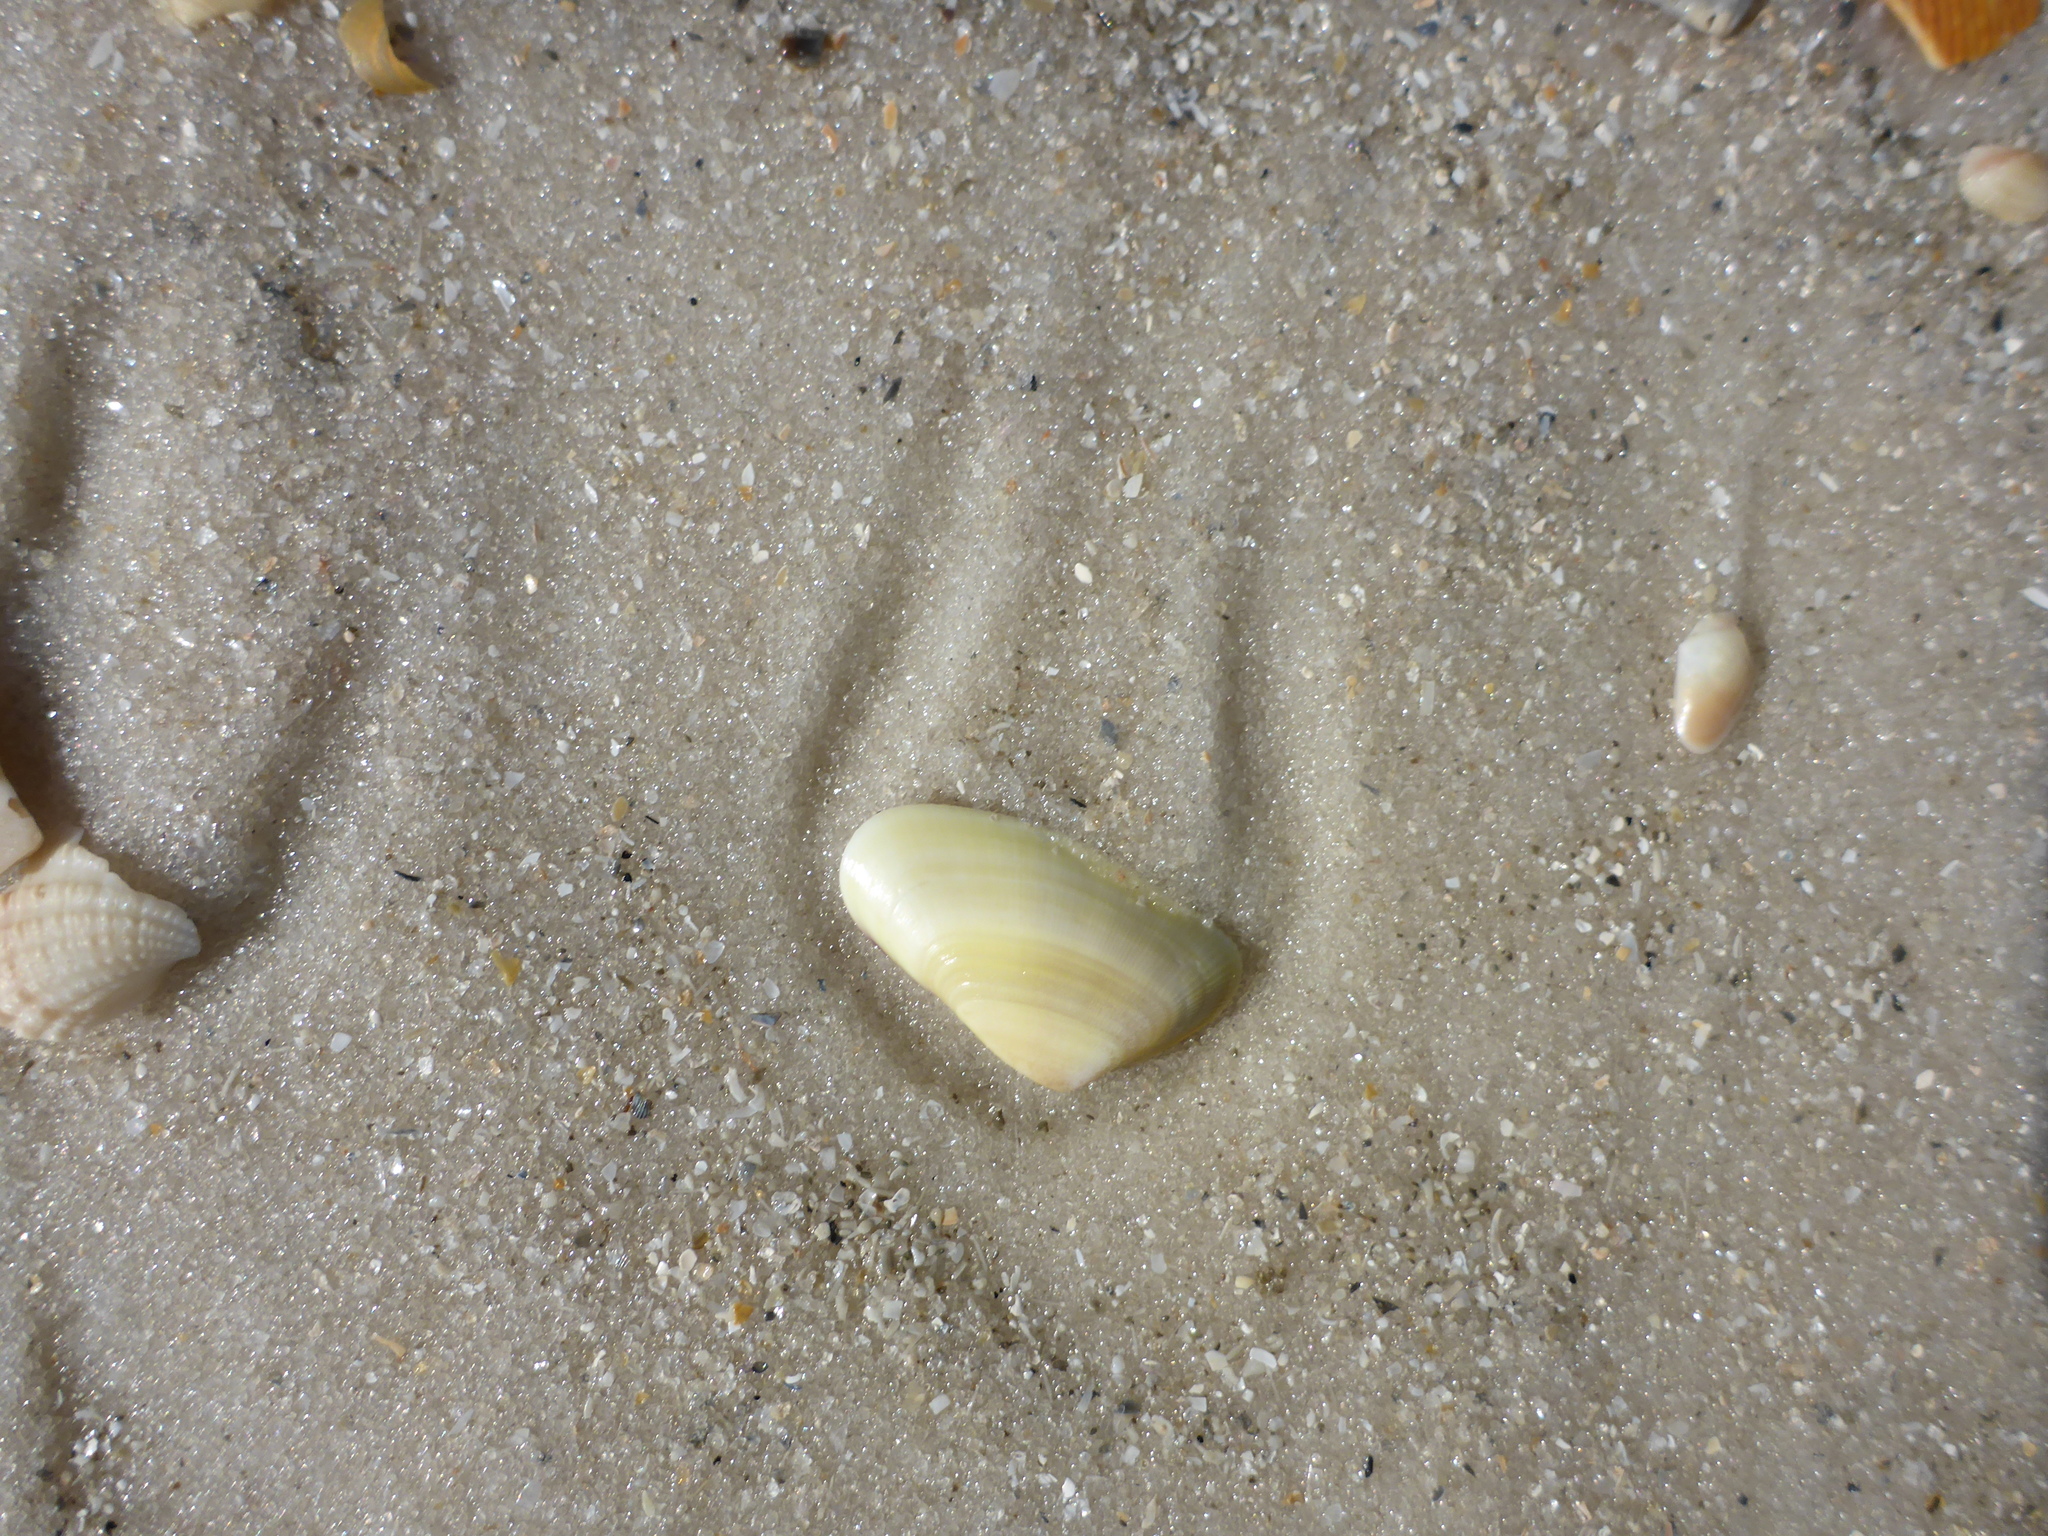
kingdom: Animalia
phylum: Mollusca
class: Bivalvia
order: Cardiida
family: Donacidae
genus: Donax
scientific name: Donax variabilis
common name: Butterfly shell
